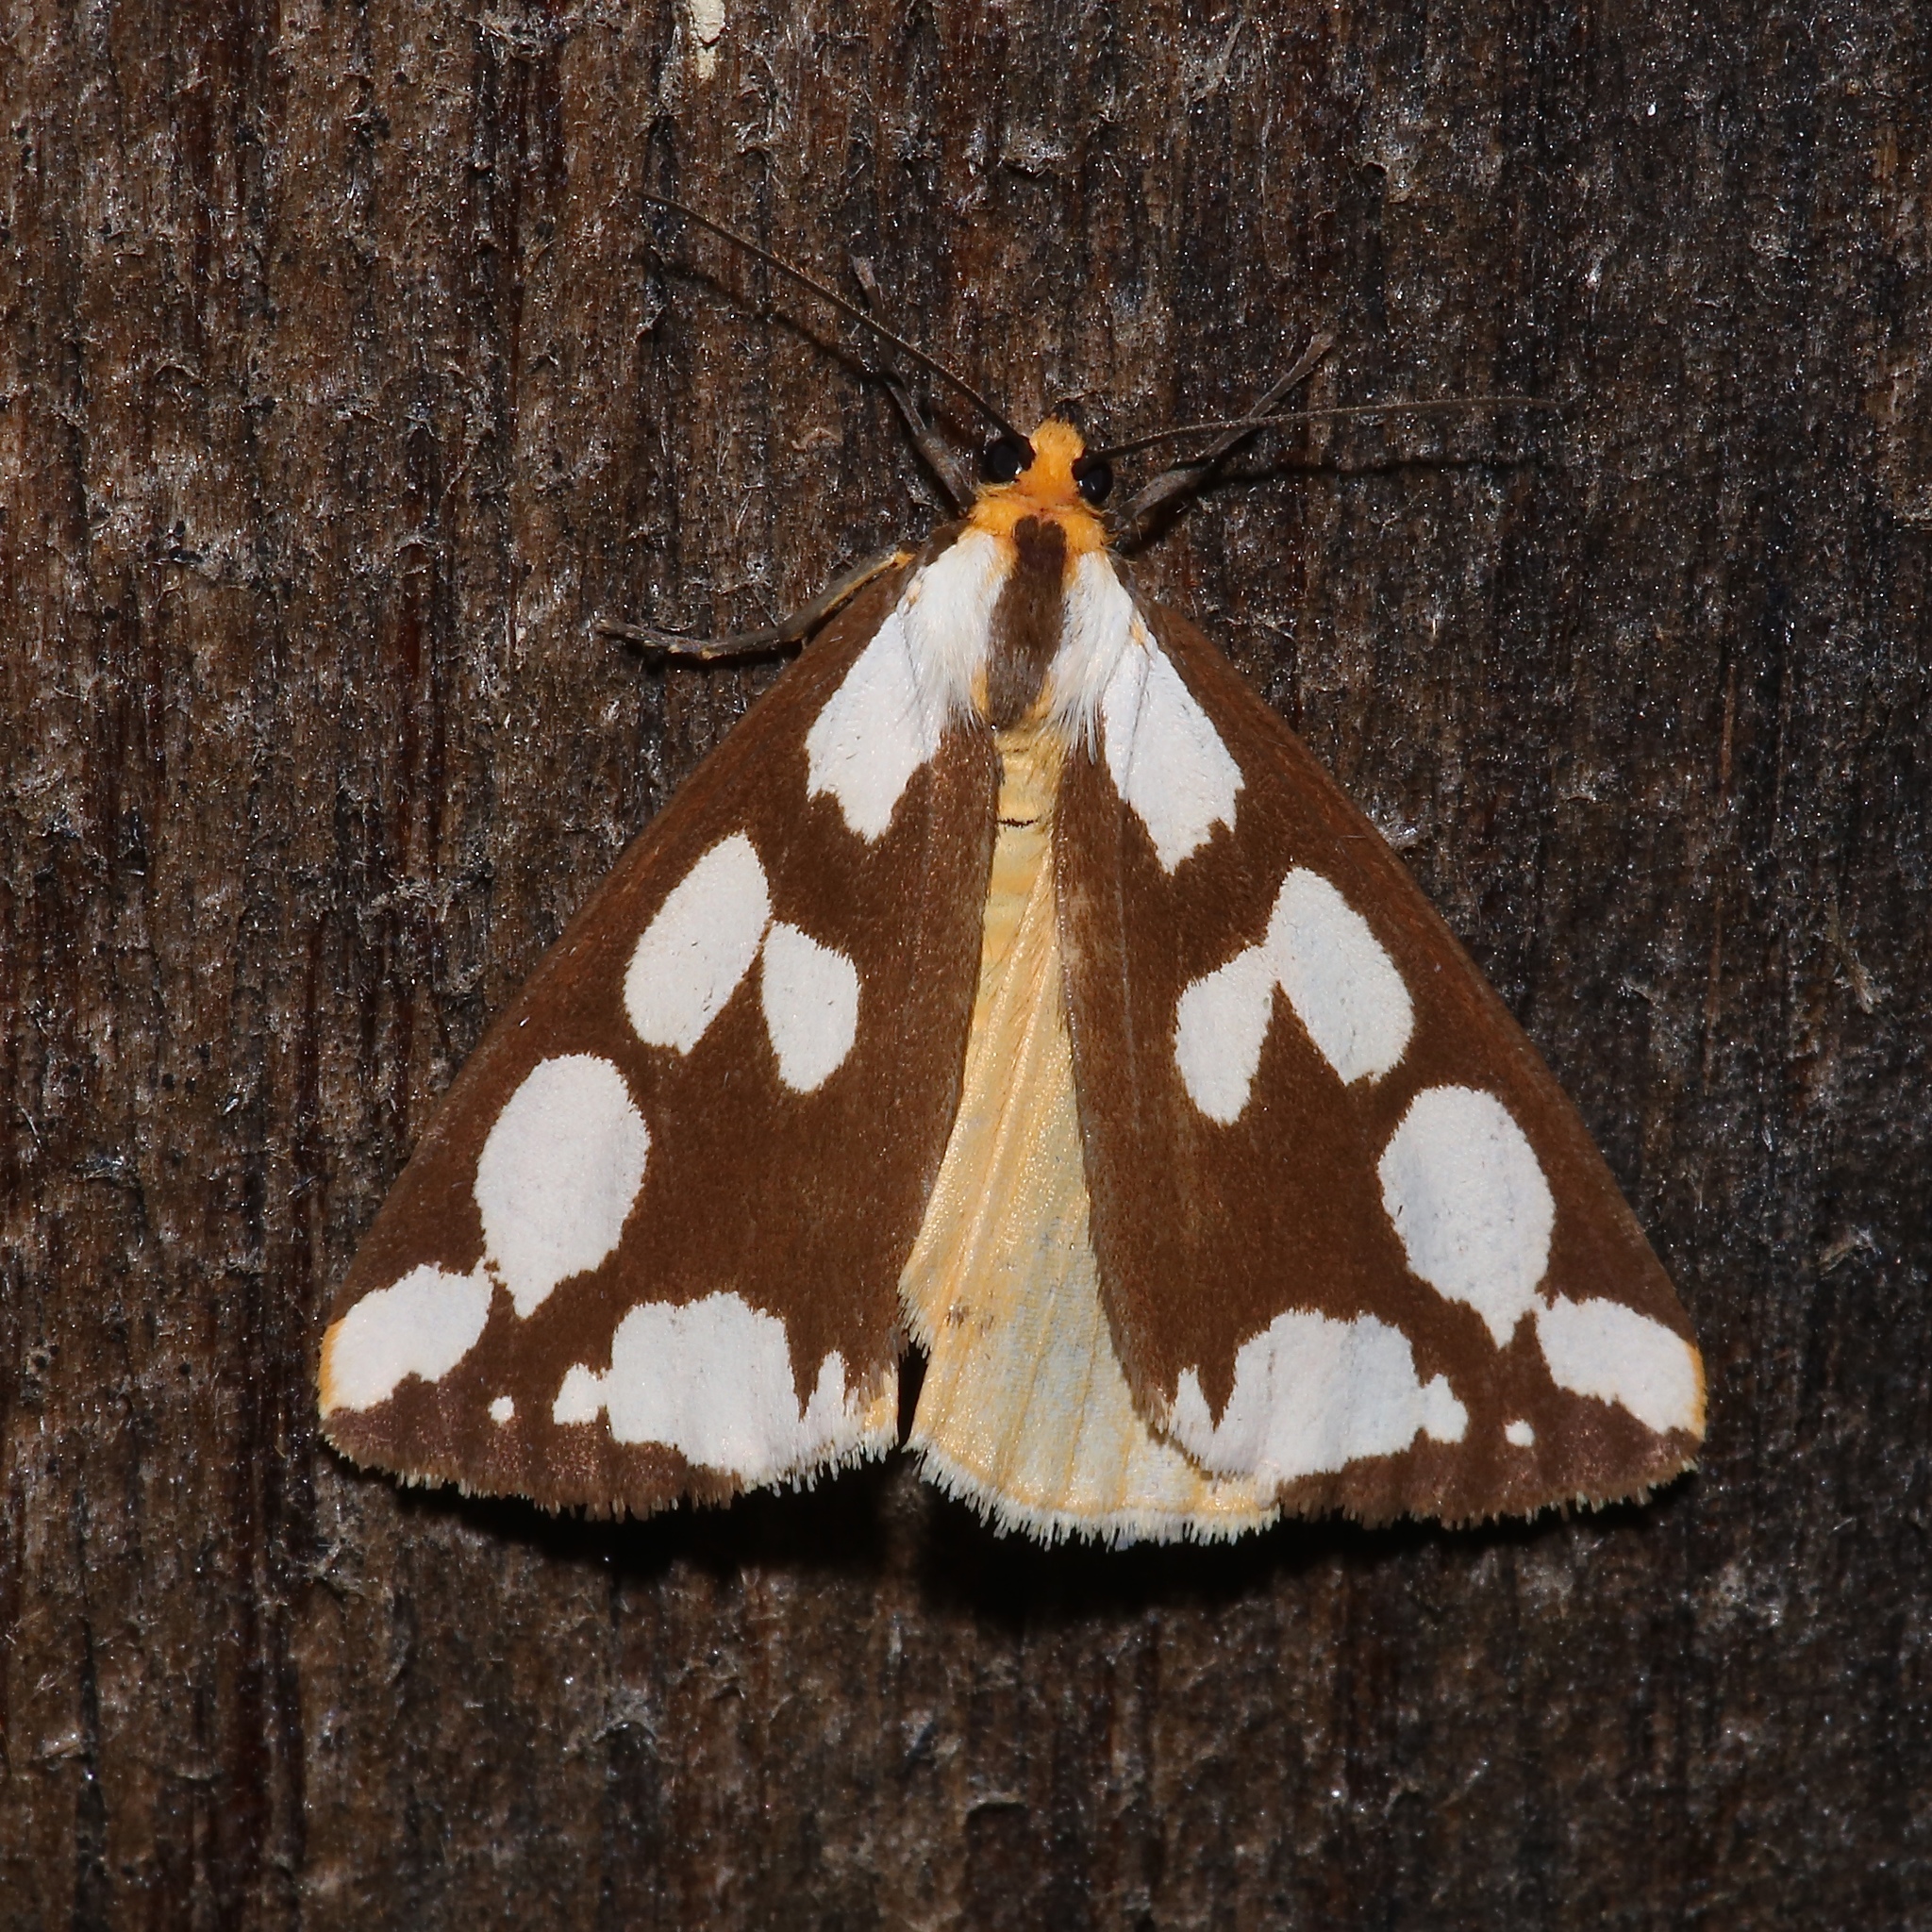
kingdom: Animalia
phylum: Arthropoda
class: Insecta
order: Lepidoptera
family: Erebidae
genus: Haploa
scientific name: Haploa confusa
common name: Confused haploa moth
